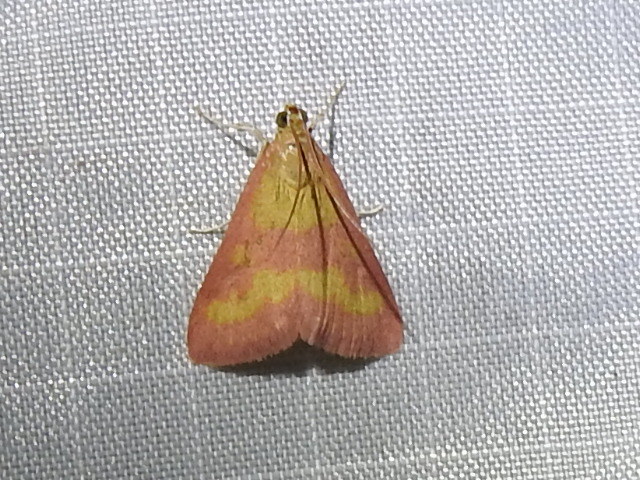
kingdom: Animalia
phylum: Arthropoda
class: Insecta
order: Lepidoptera
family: Crambidae
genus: Pyrausta
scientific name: Pyrausta laticlavia
